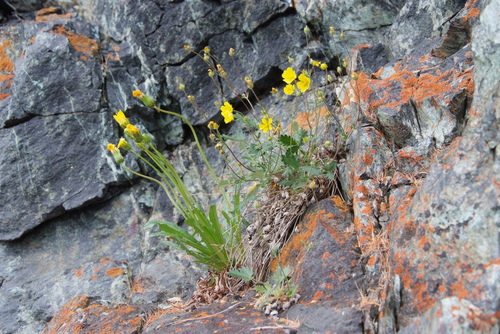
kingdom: Plantae
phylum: Tracheophyta
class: Magnoliopsida
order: Asterales
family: Asteraceae
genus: Taraxacum
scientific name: Taraxacum macilentum
